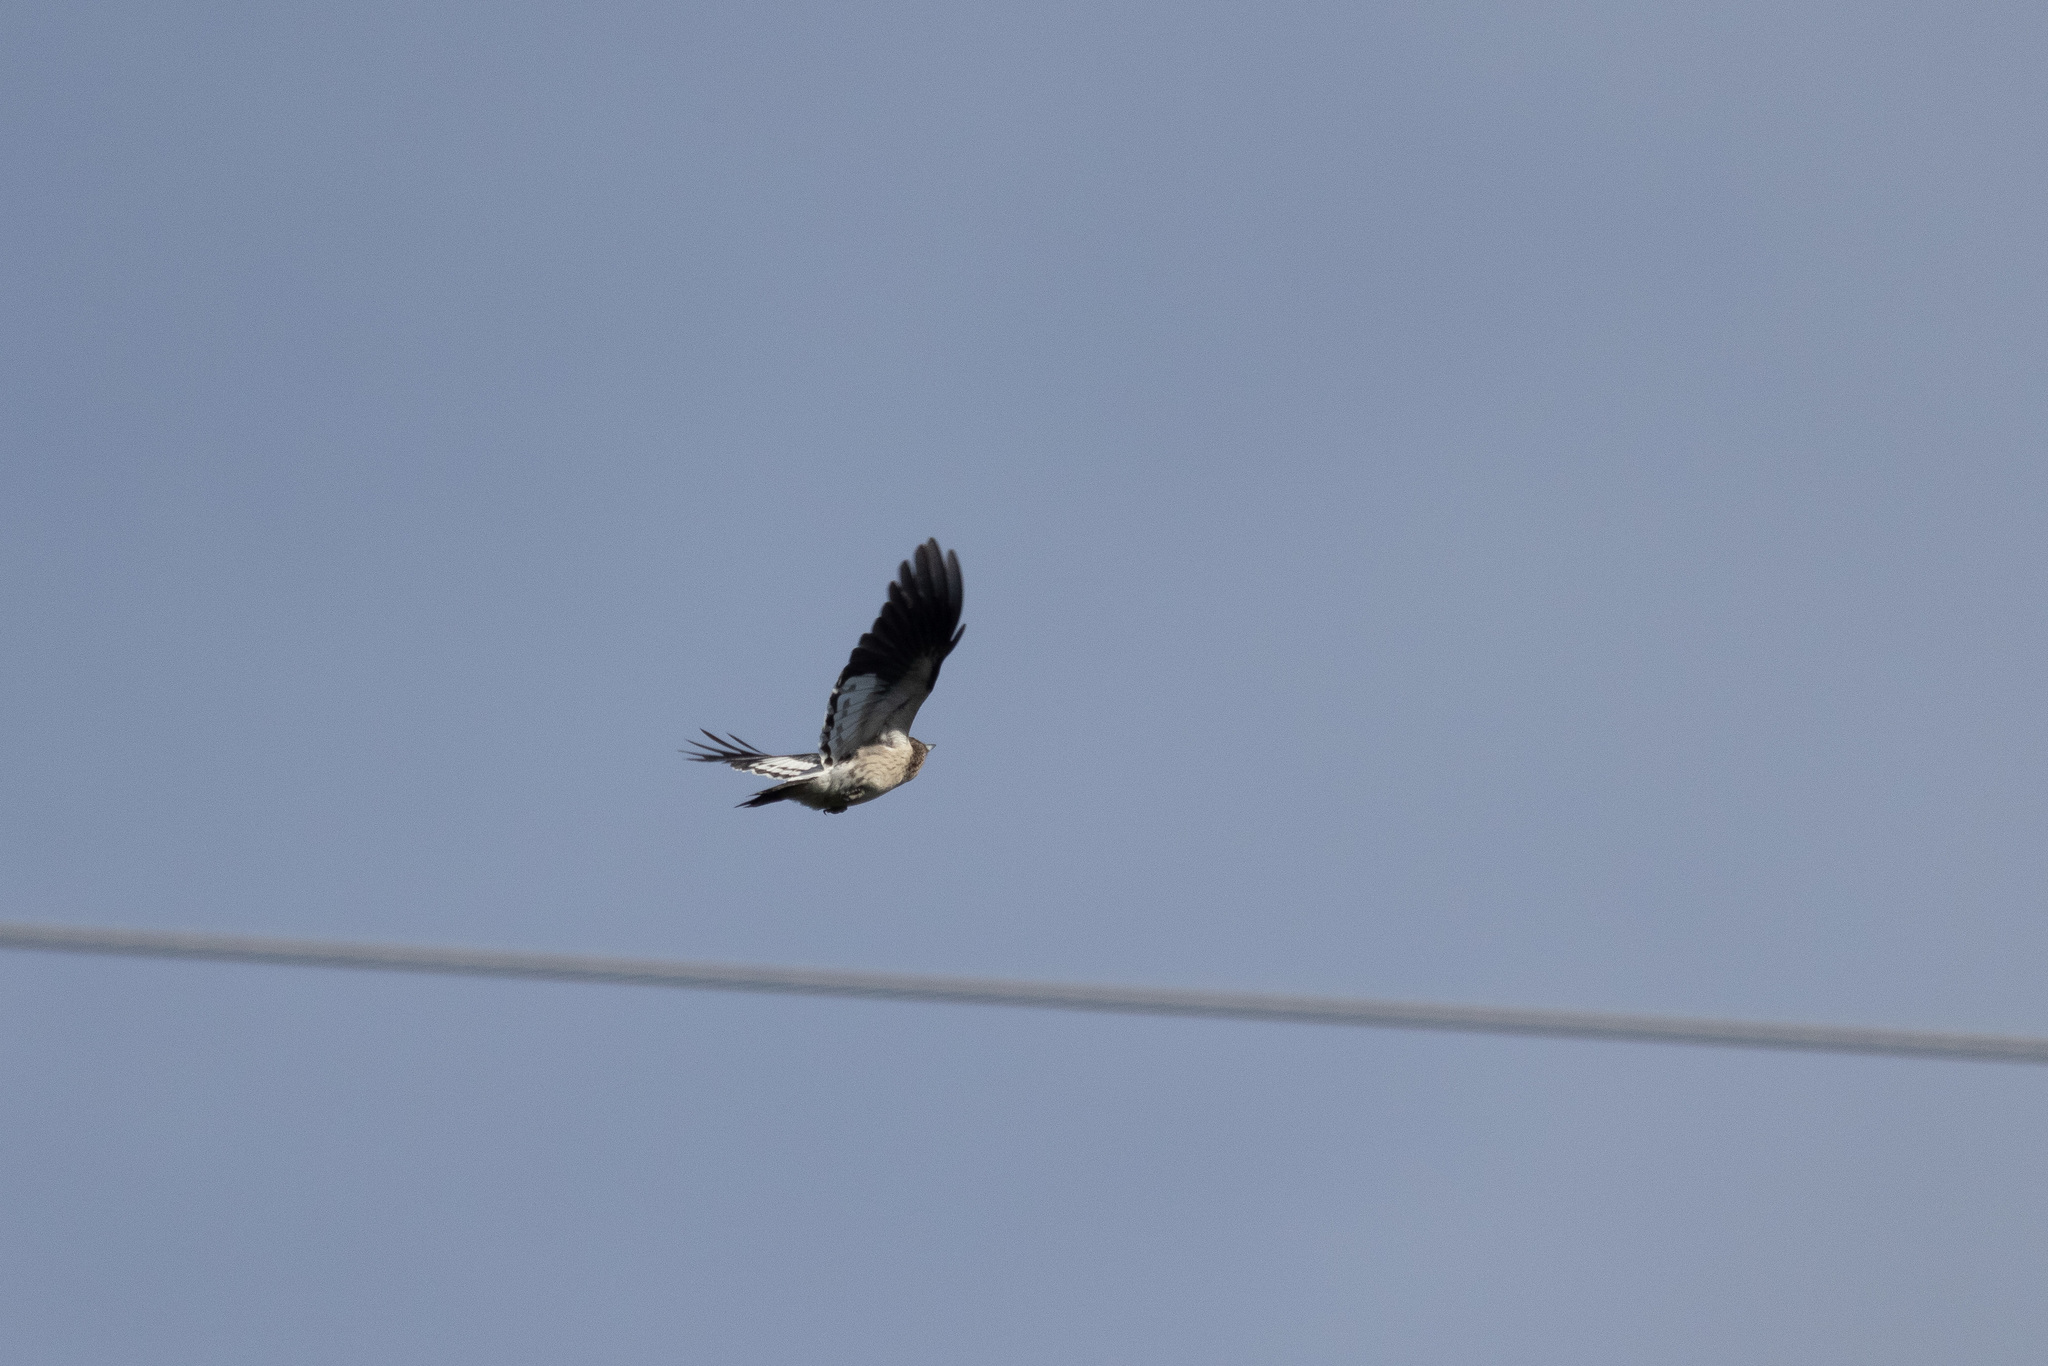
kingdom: Animalia
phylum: Chordata
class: Aves
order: Piciformes
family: Picidae
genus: Melanerpes
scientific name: Melanerpes erythrocephalus
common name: Red-headed woodpecker
